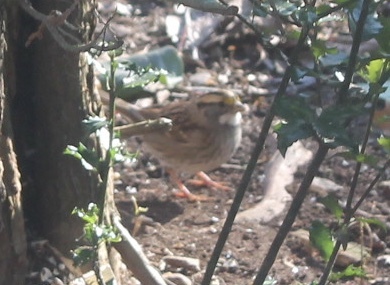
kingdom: Animalia
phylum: Chordata
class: Aves
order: Passeriformes
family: Passerellidae
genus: Zonotrichia
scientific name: Zonotrichia albicollis
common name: White-throated sparrow
